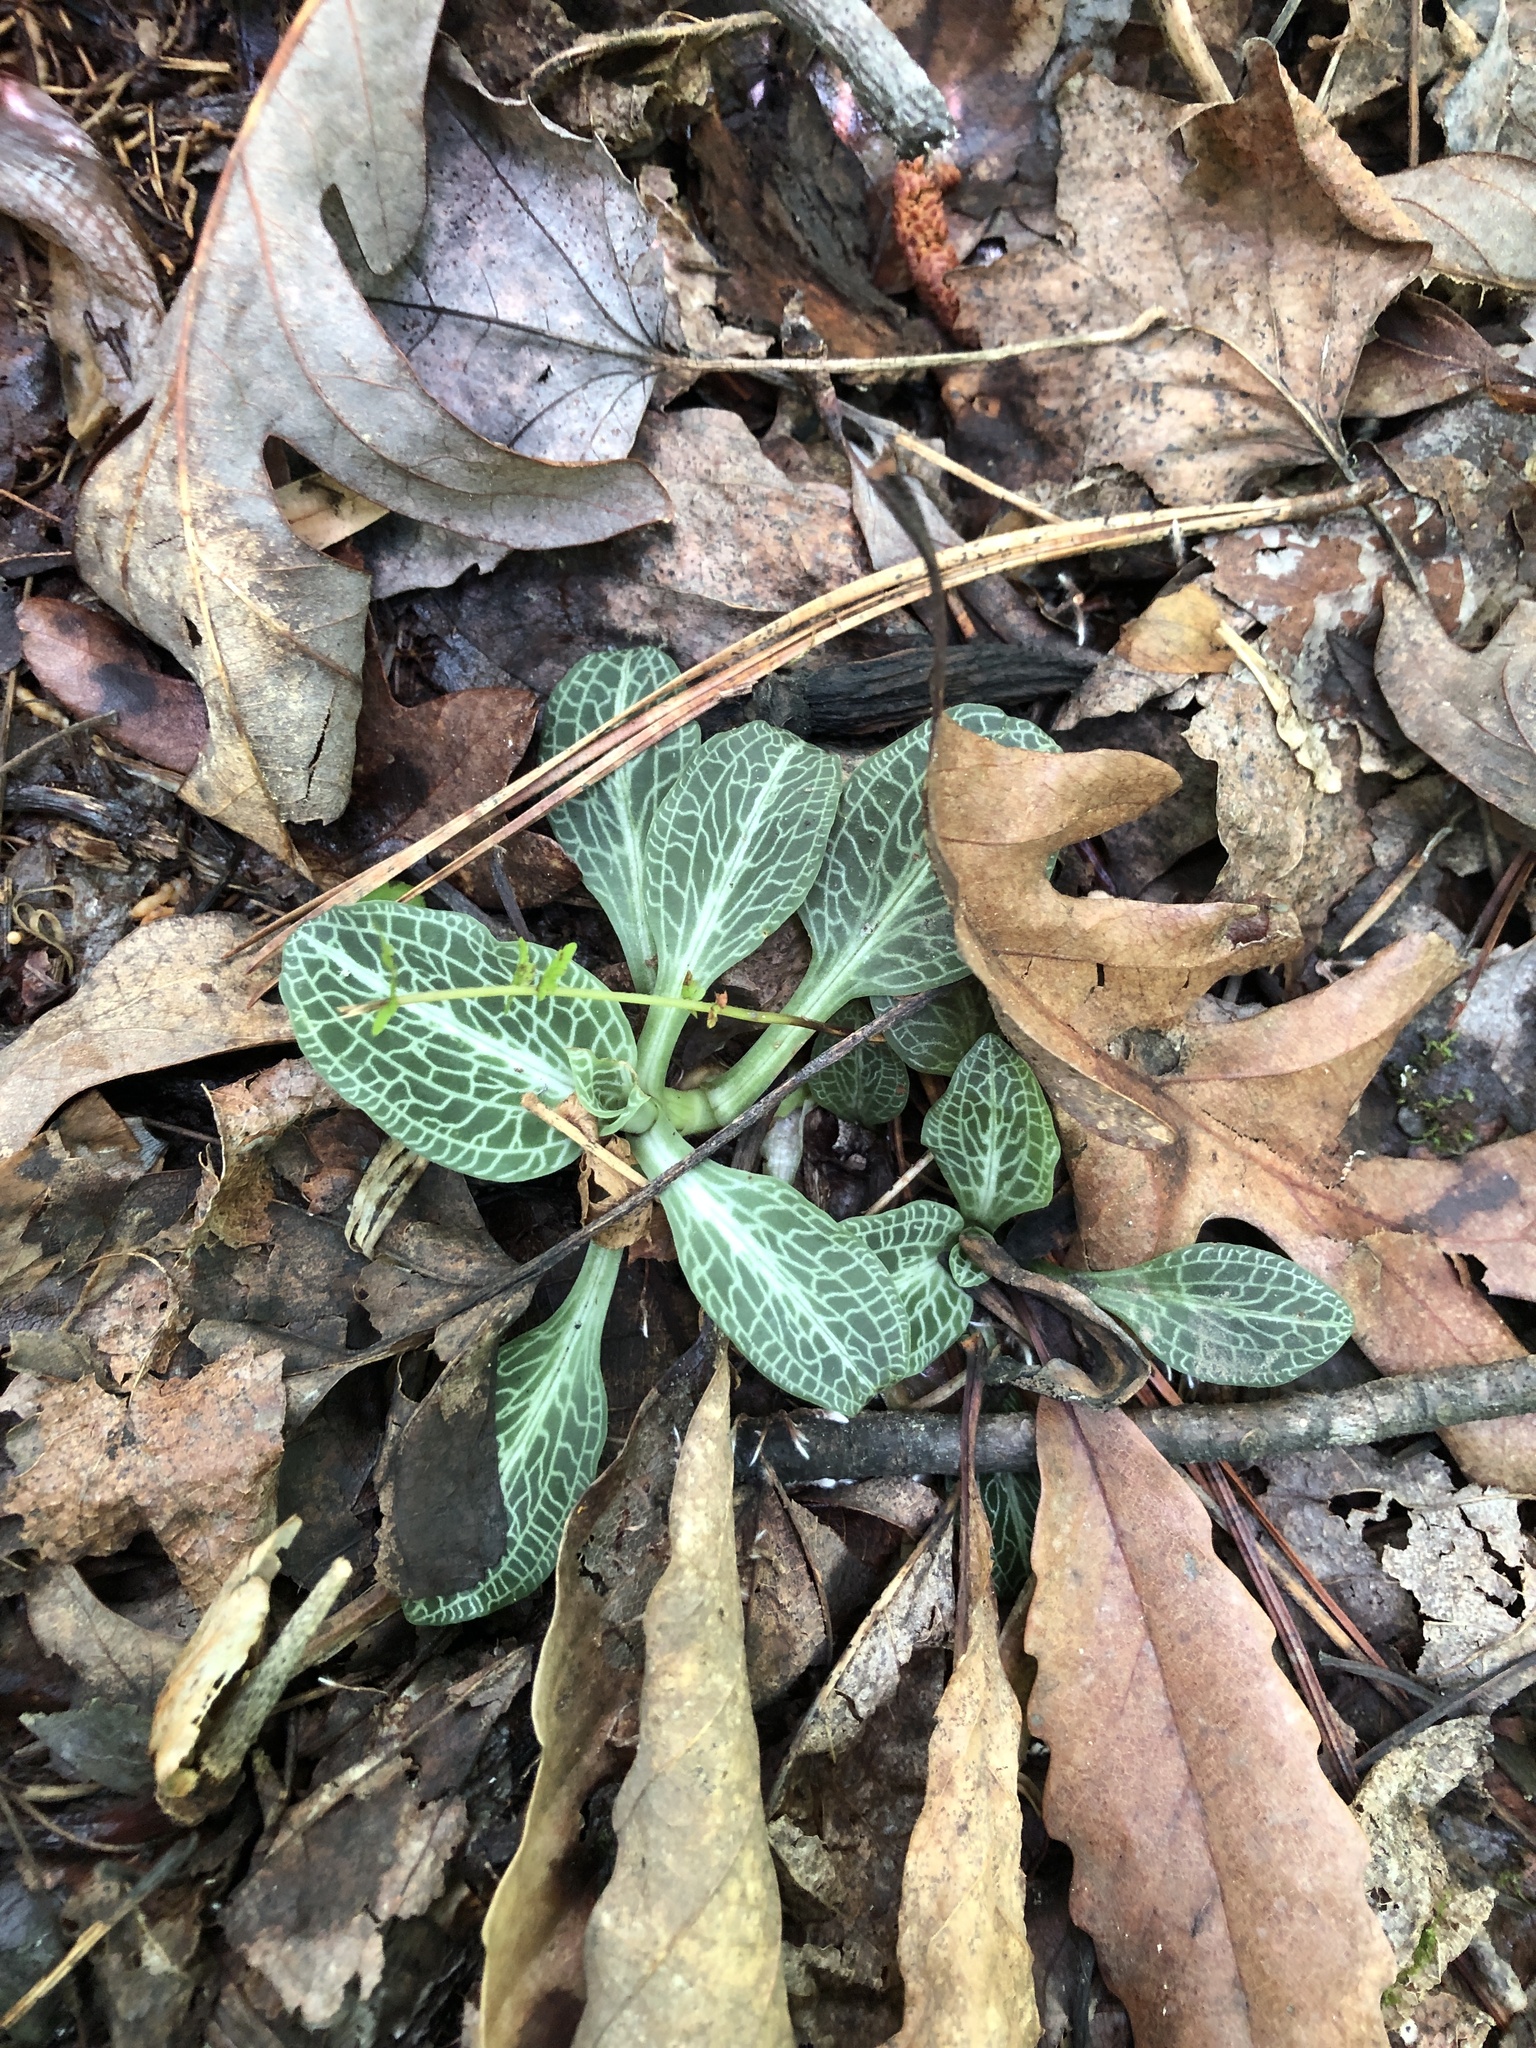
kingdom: Plantae
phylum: Tracheophyta
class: Liliopsida
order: Asparagales
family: Orchidaceae
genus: Goodyera
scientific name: Goodyera pubescens
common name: Downy rattlesnake-plantain
